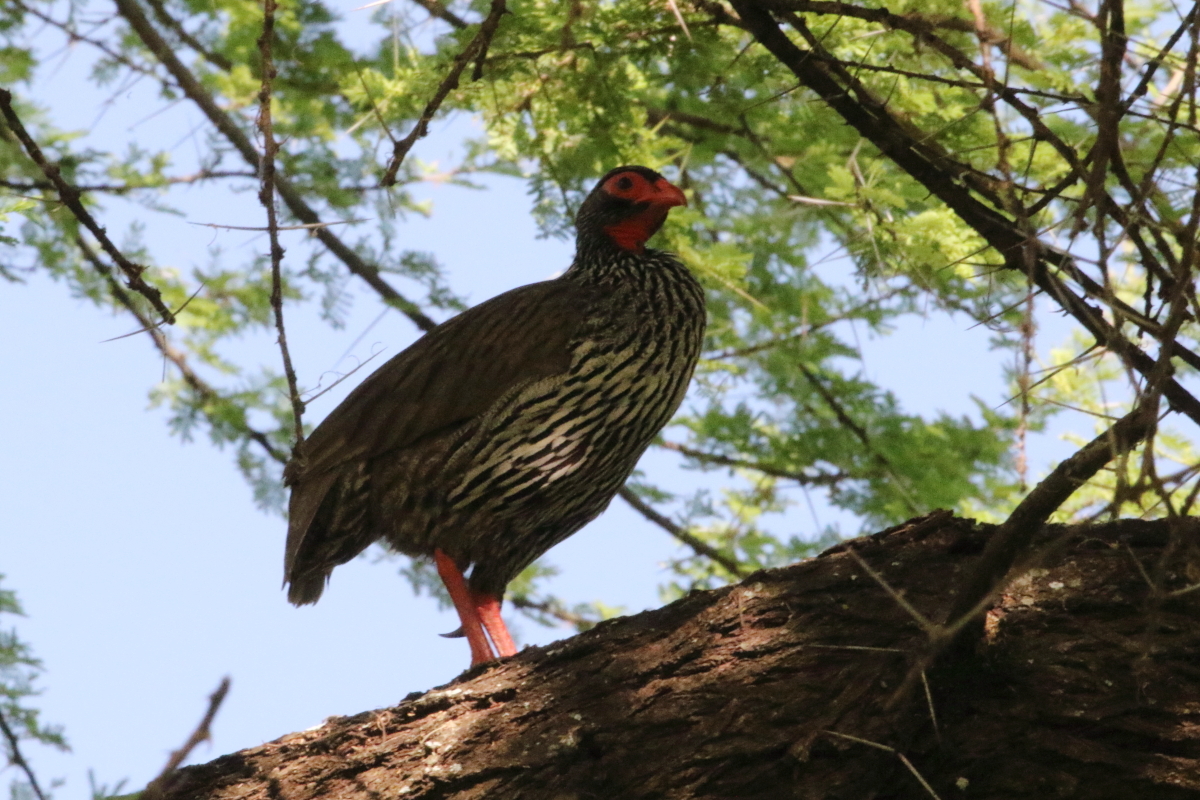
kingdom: Animalia
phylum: Chordata
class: Aves
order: Galliformes
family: Phasianidae
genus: Pternistis
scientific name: Pternistis afer
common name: Red-necked spurfowl
